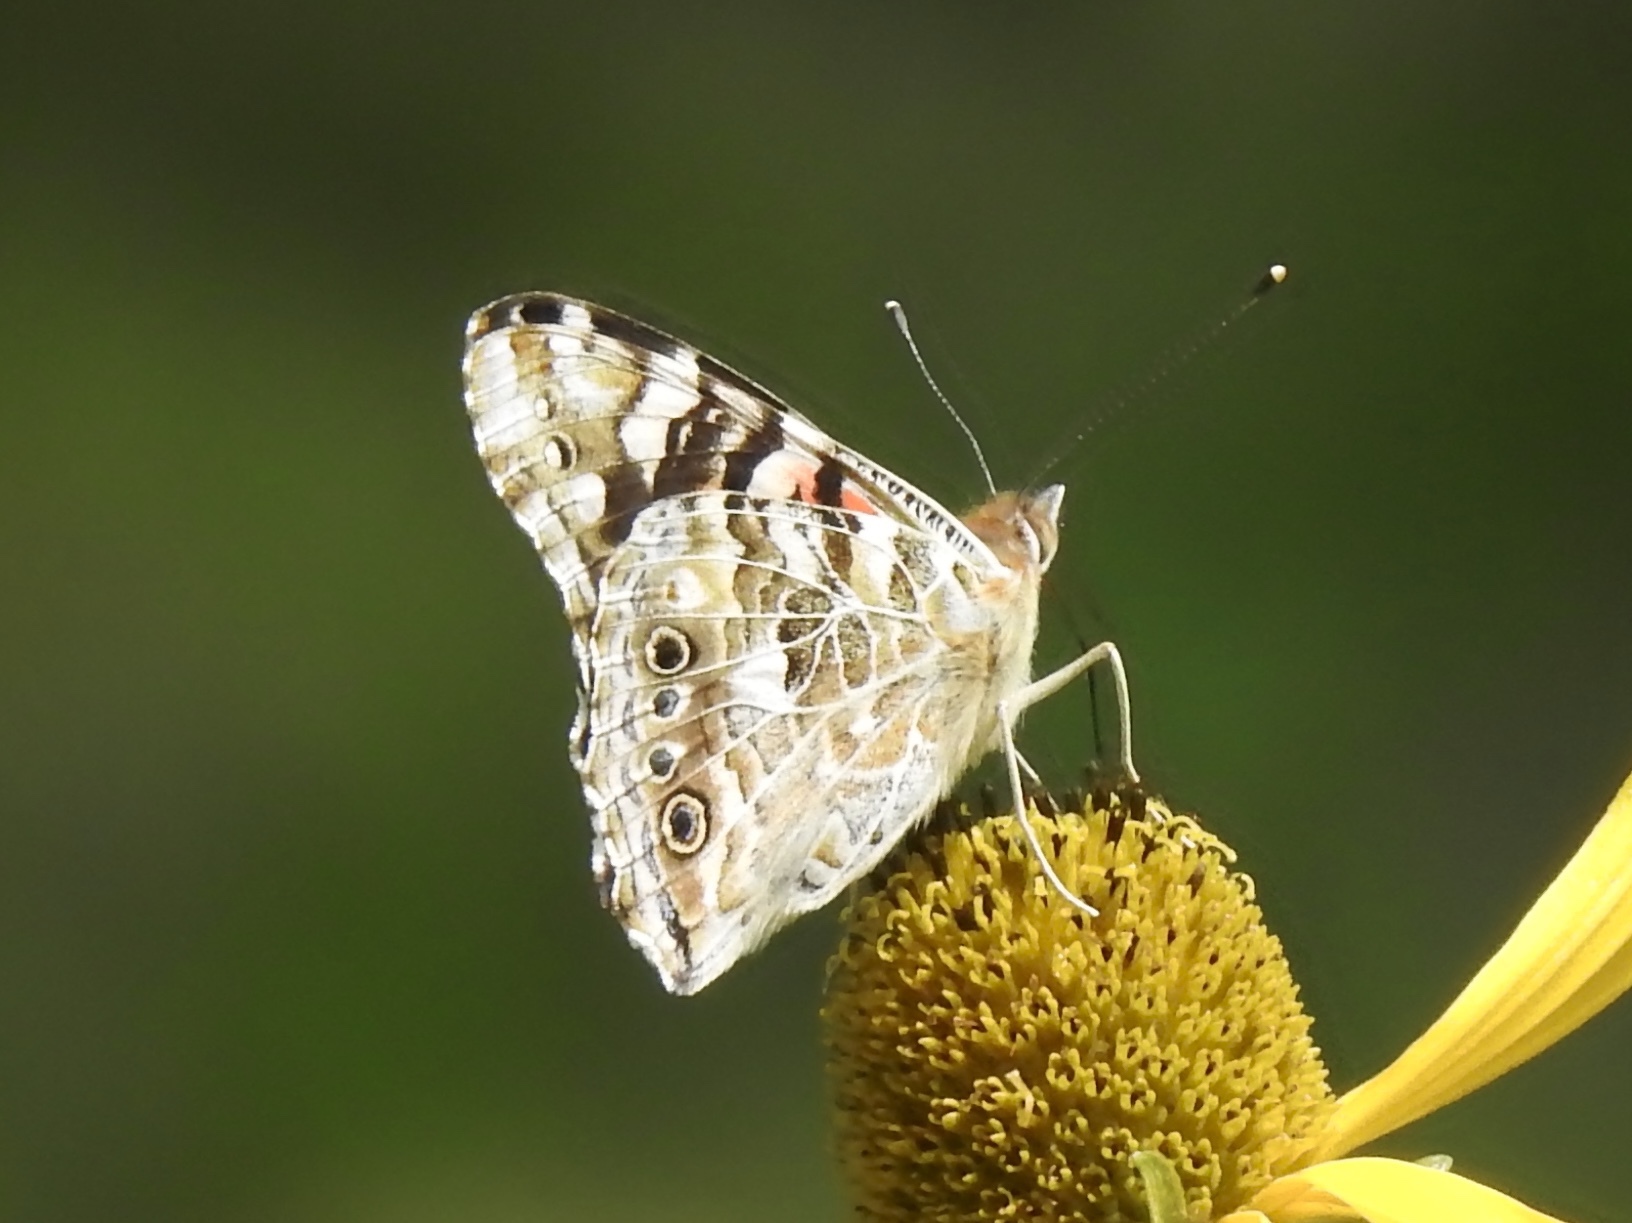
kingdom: Animalia
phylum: Arthropoda
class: Insecta
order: Lepidoptera
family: Nymphalidae
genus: Vanessa
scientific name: Vanessa cardui
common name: Painted lady
